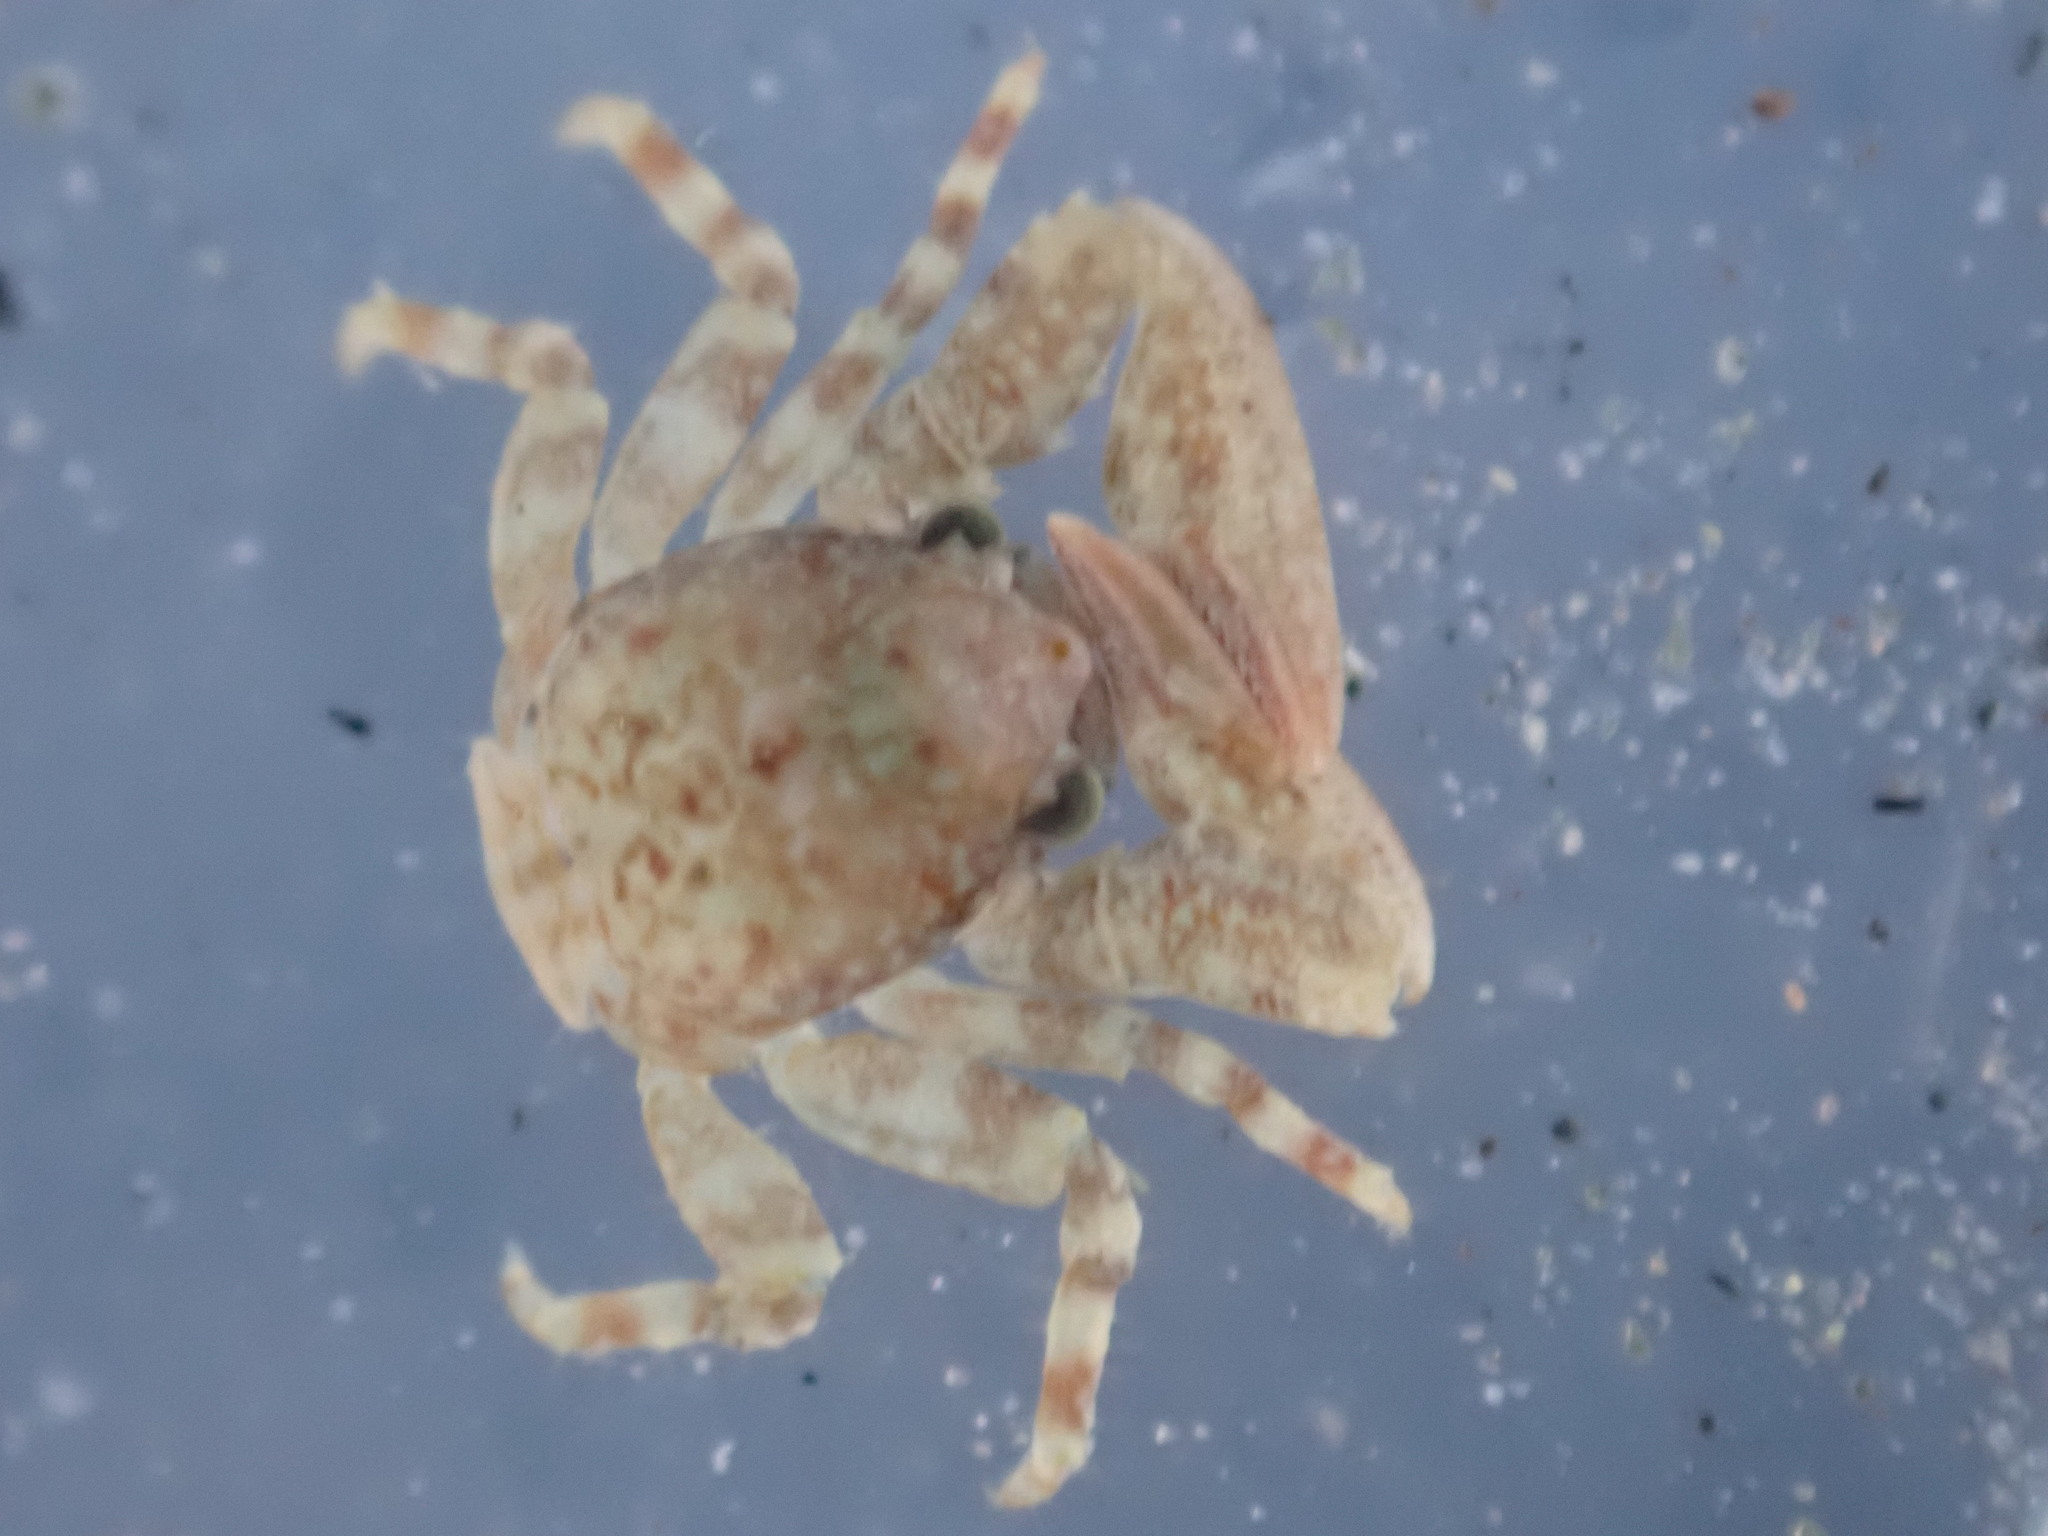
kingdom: Animalia
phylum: Arthropoda
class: Malacostraca
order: Decapoda
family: Porcellanidae
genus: Petrocheles
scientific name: Petrocheles spinosus
